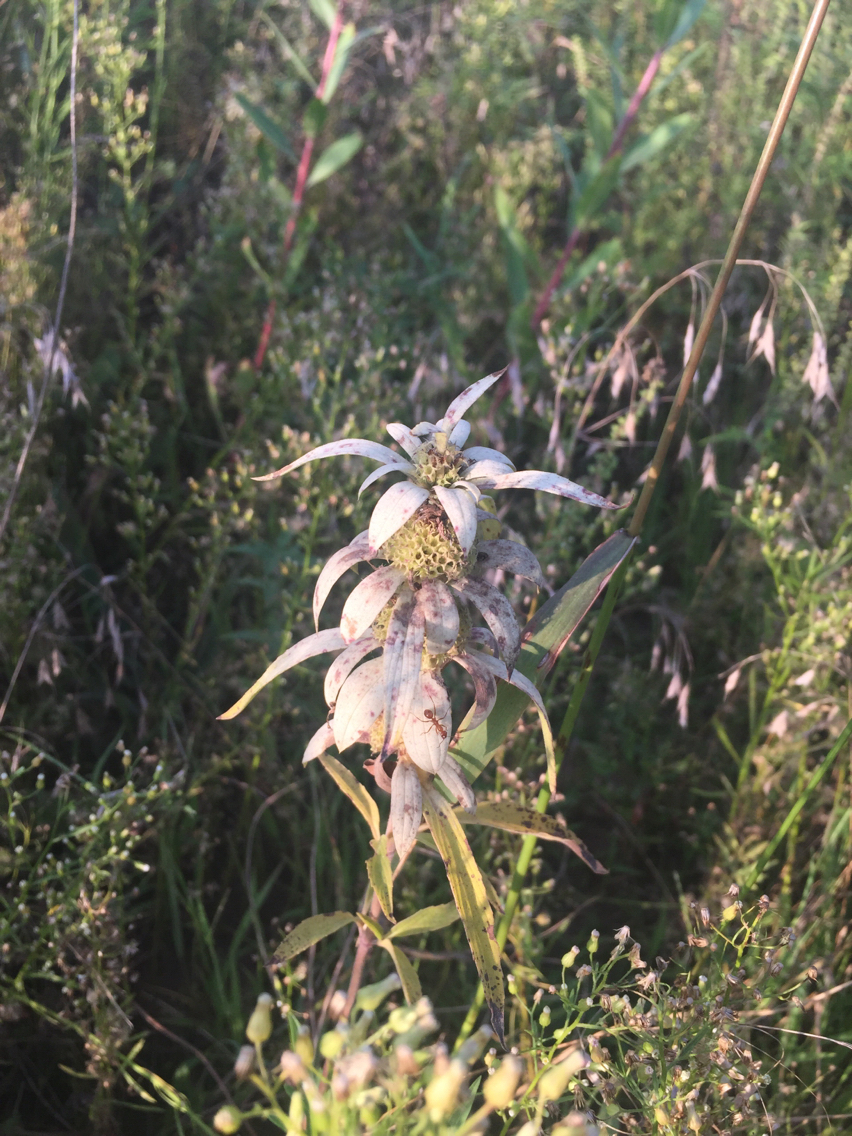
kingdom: Plantae
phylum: Tracheophyta
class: Magnoliopsida
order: Lamiales
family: Lamiaceae
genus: Monarda
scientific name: Monarda punctata
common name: Dotted monarda
